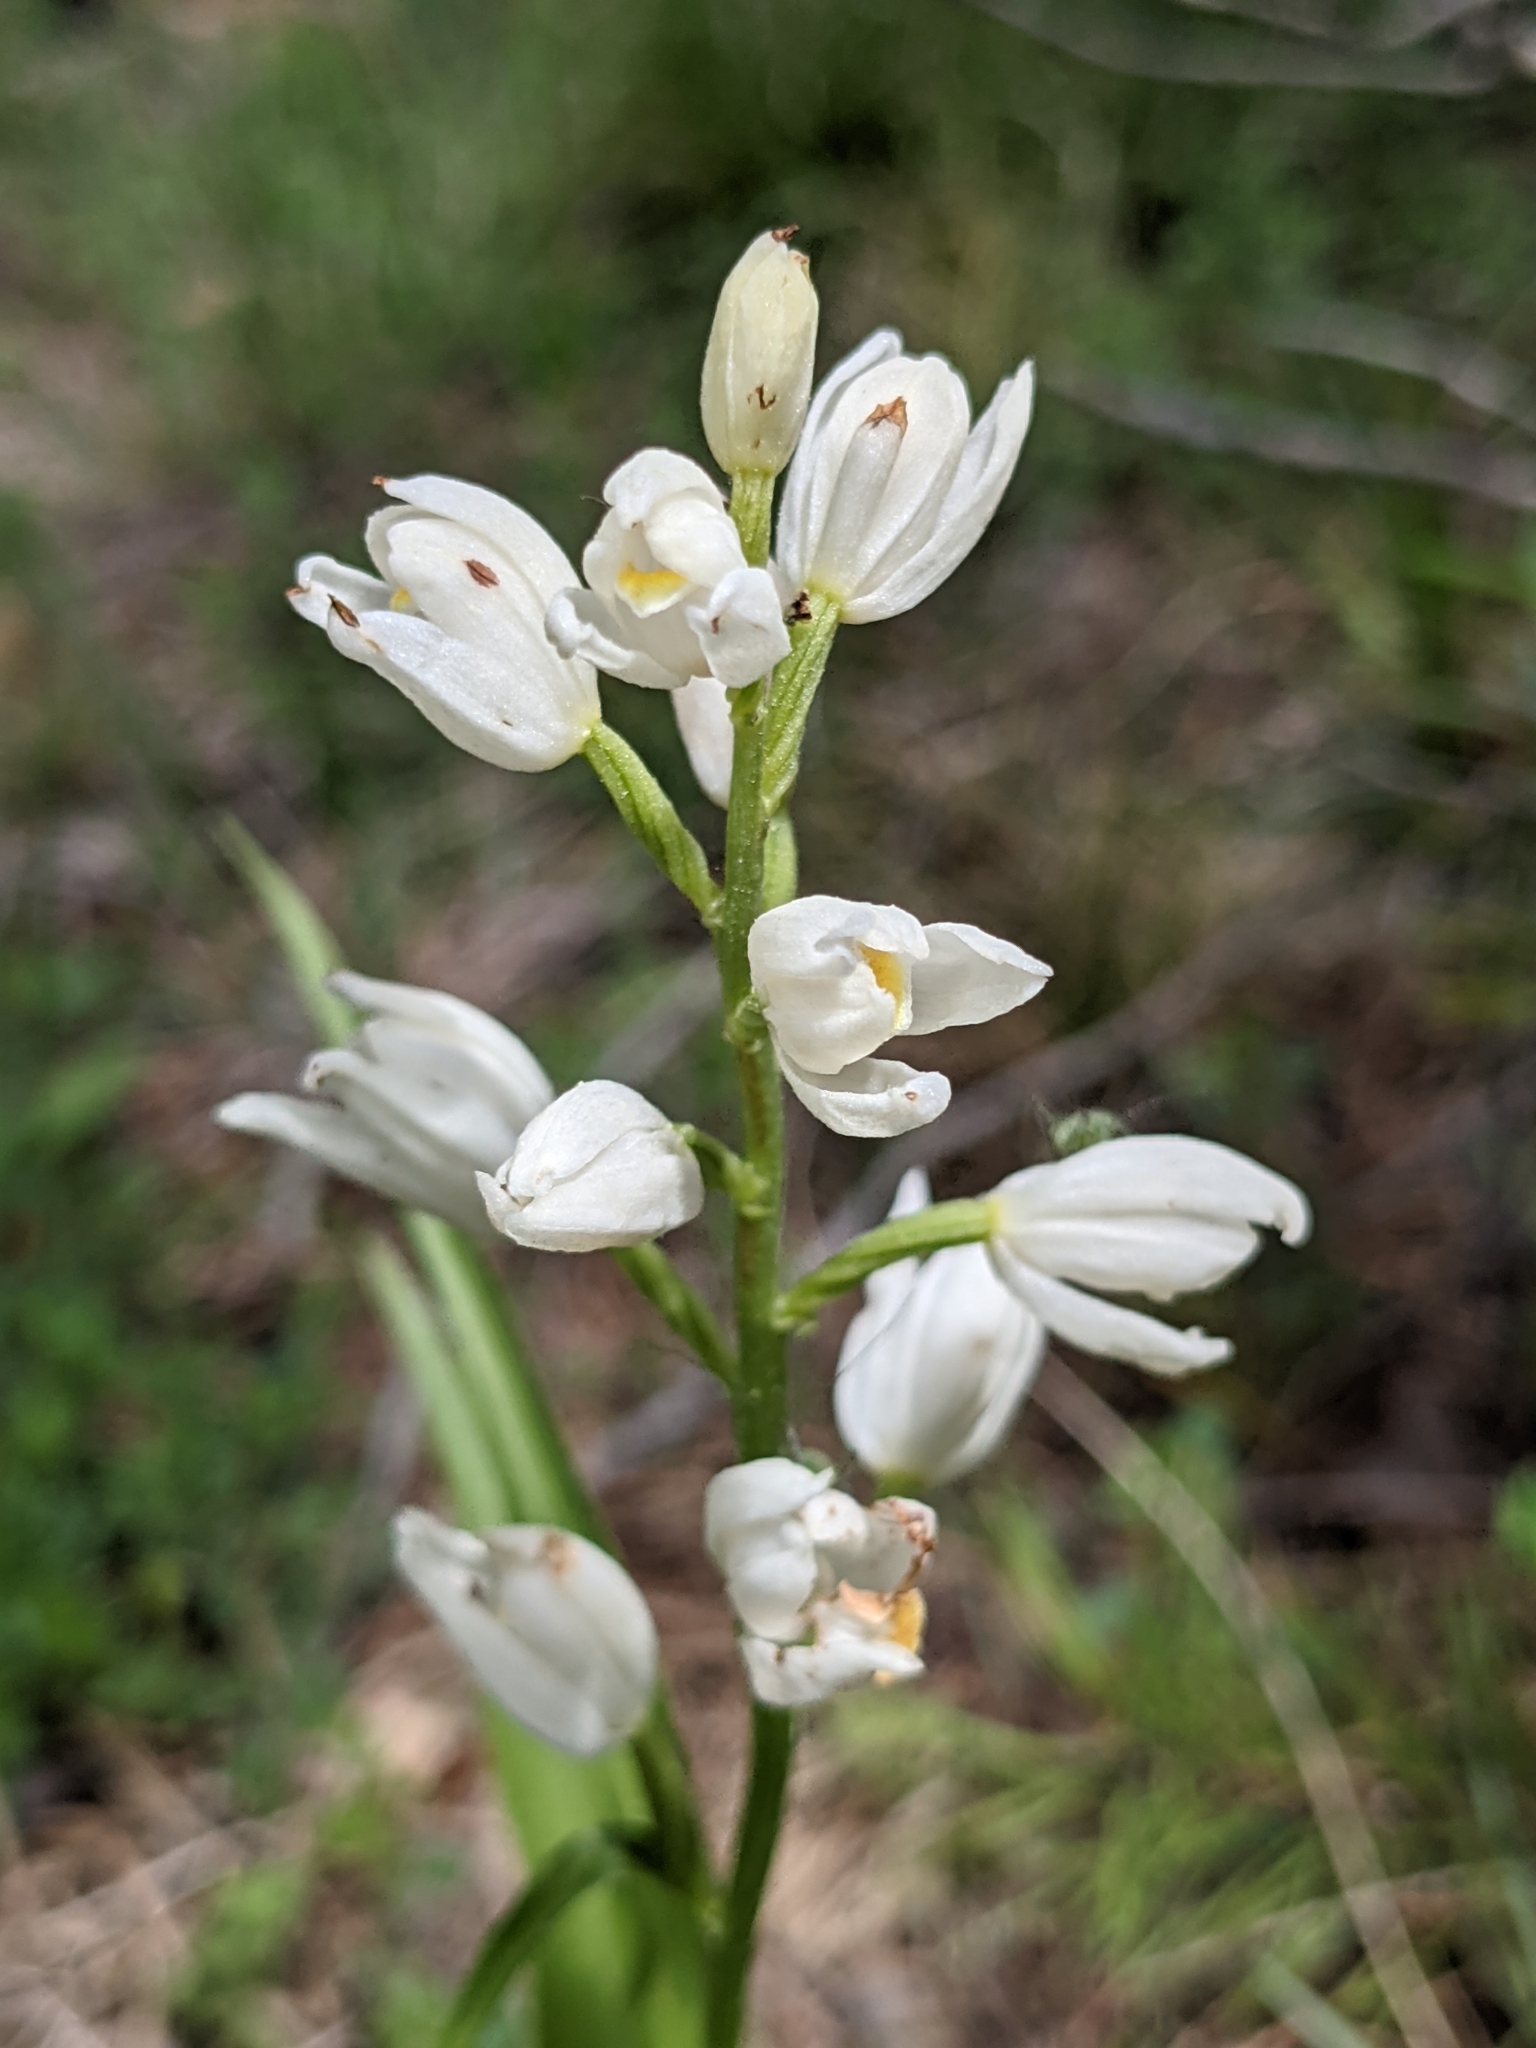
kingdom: Plantae
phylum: Tracheophyta
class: Liliopsida
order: Asparagales
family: Orchidaceae
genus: Cephalanthera
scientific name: Cephalanthera longifolia
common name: Narrow-leaved helleborine
